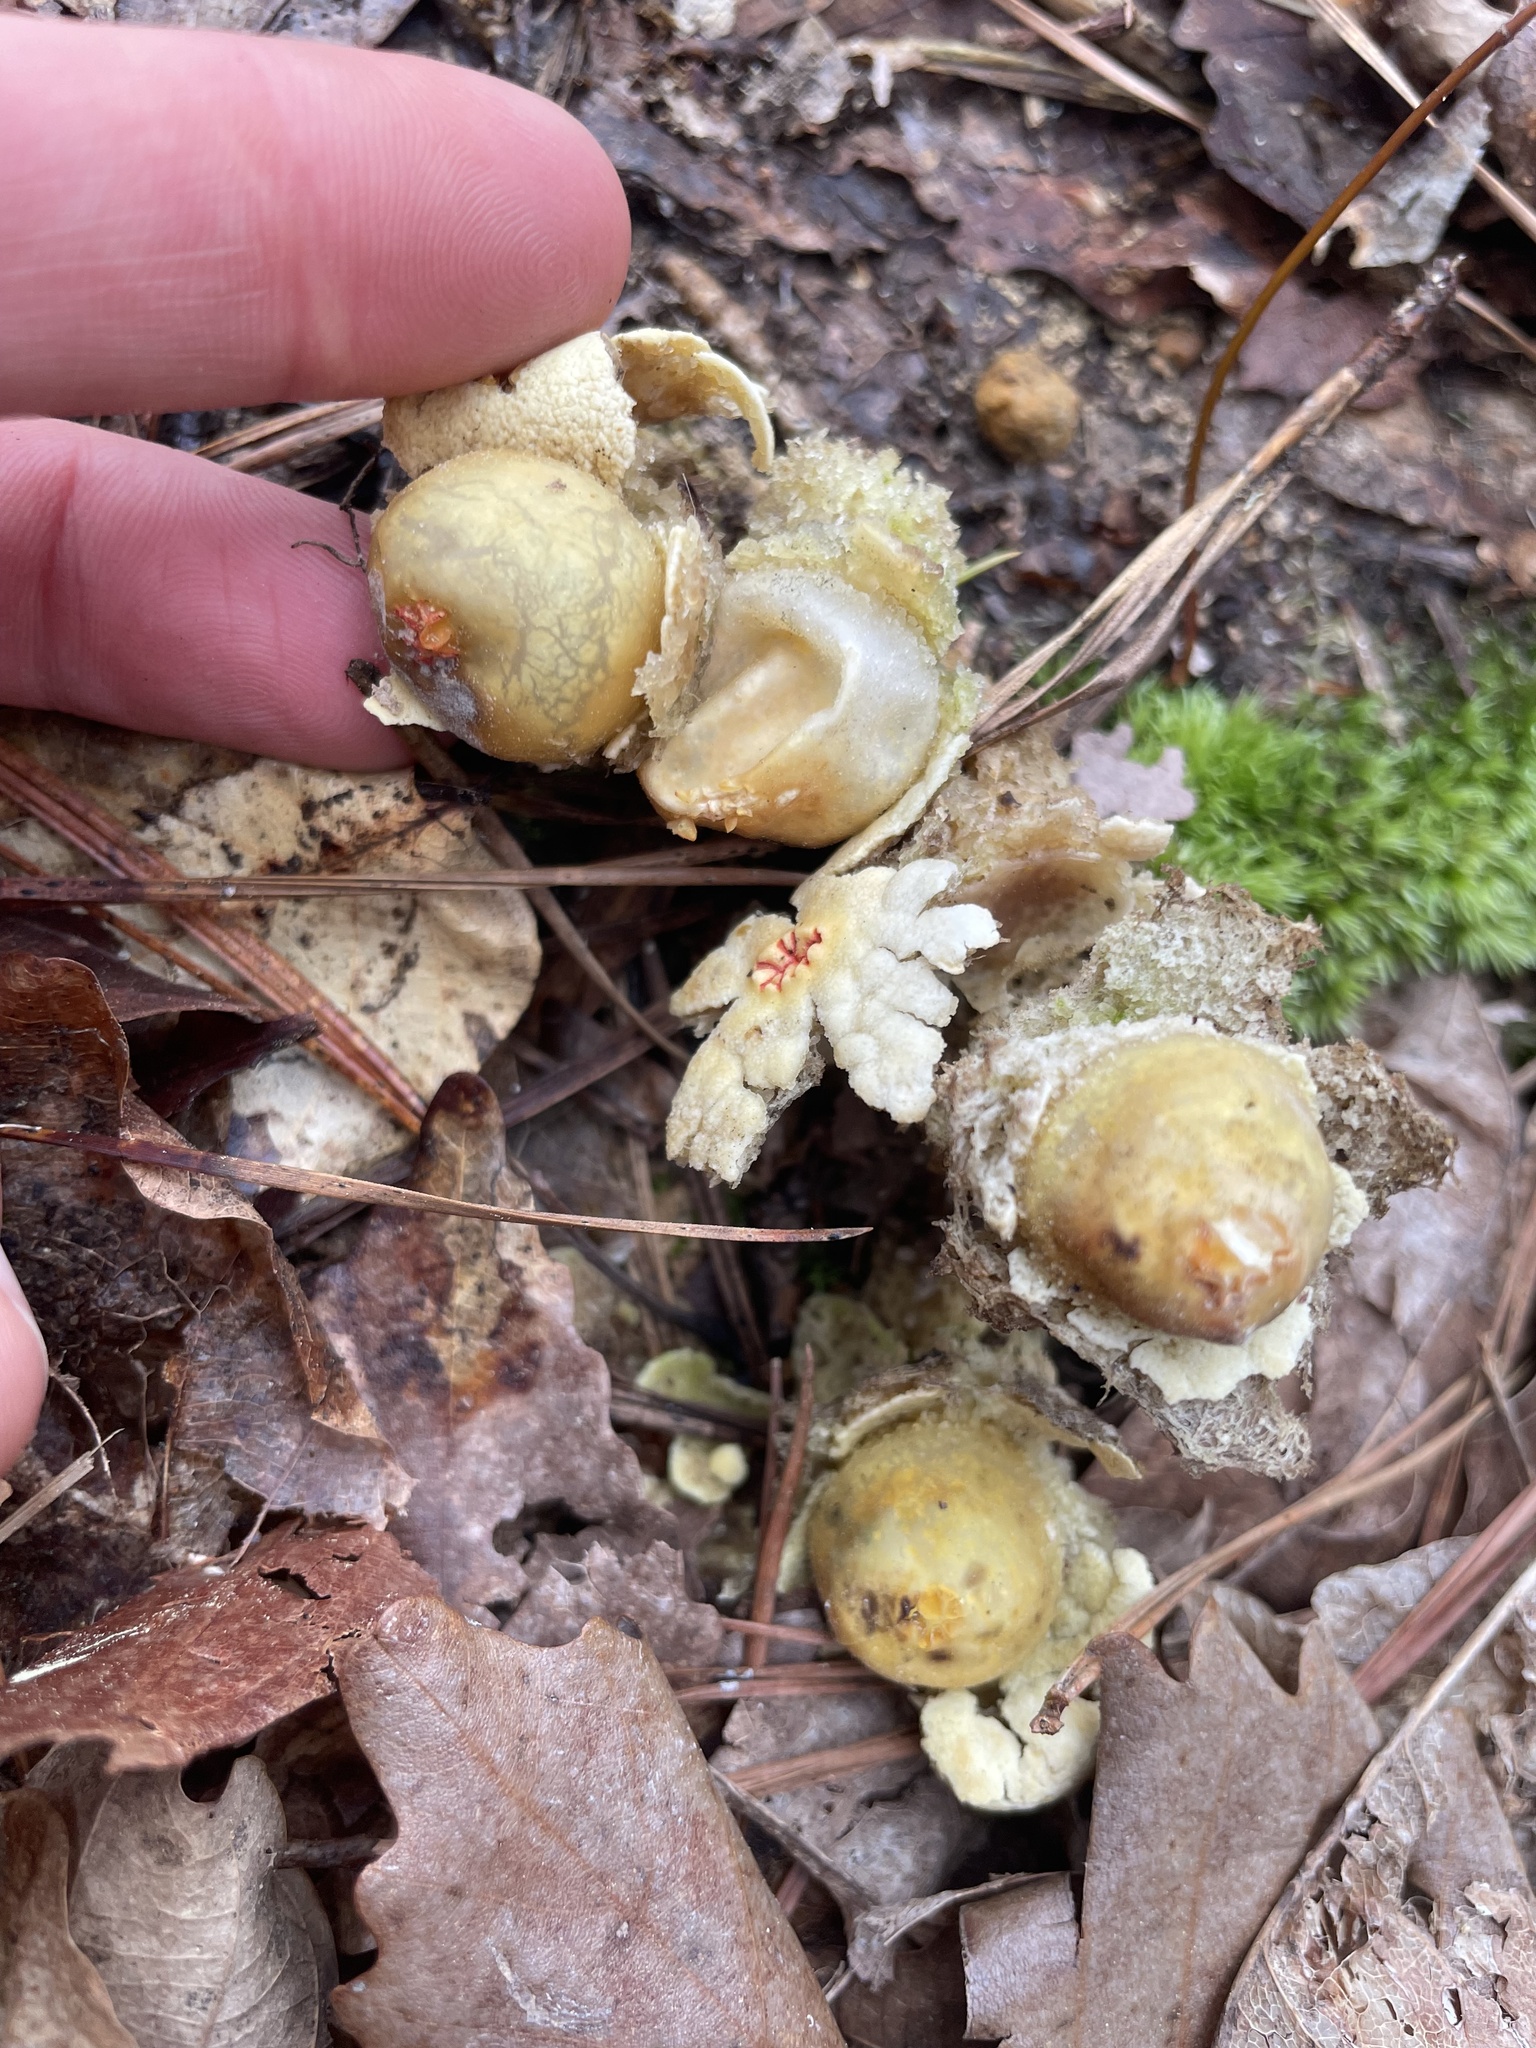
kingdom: Fungi
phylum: Basidiomycota
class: Agaricomycetes
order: Boletales
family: Calostomataceae
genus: Calostoma
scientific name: Calostoma lutescens
